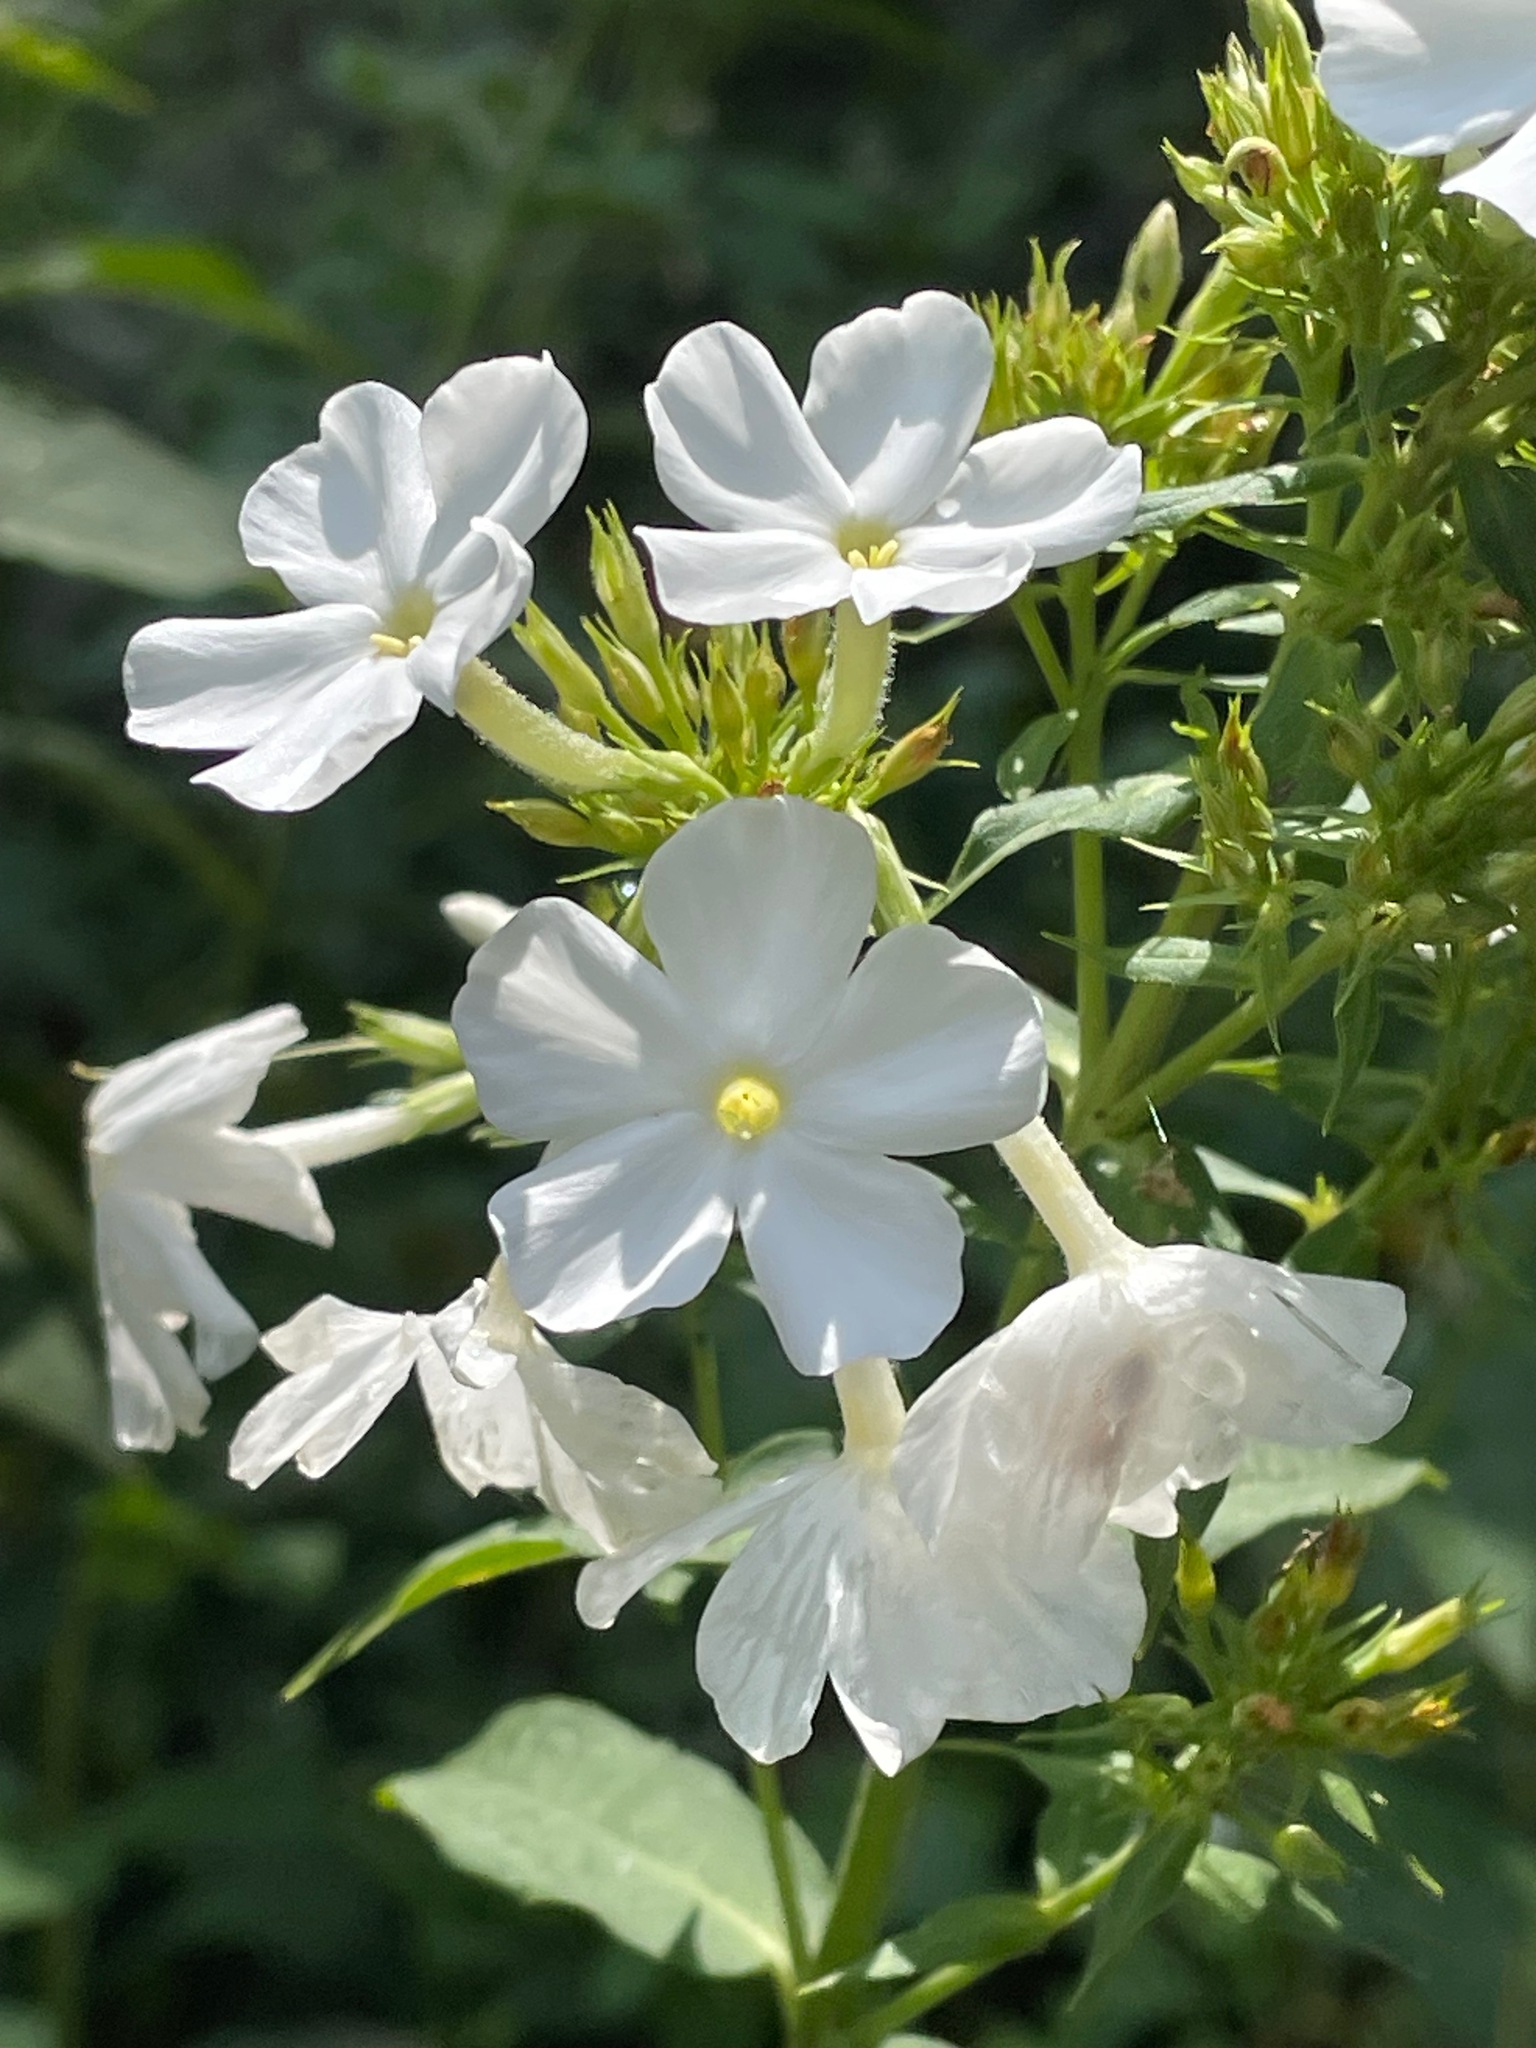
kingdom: Plantae
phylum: Tracheophyta
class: Magnoliopsida
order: Ericales
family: Polemoniaceae
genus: Phlox
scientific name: Phlox paniculata
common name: Fall phlox
